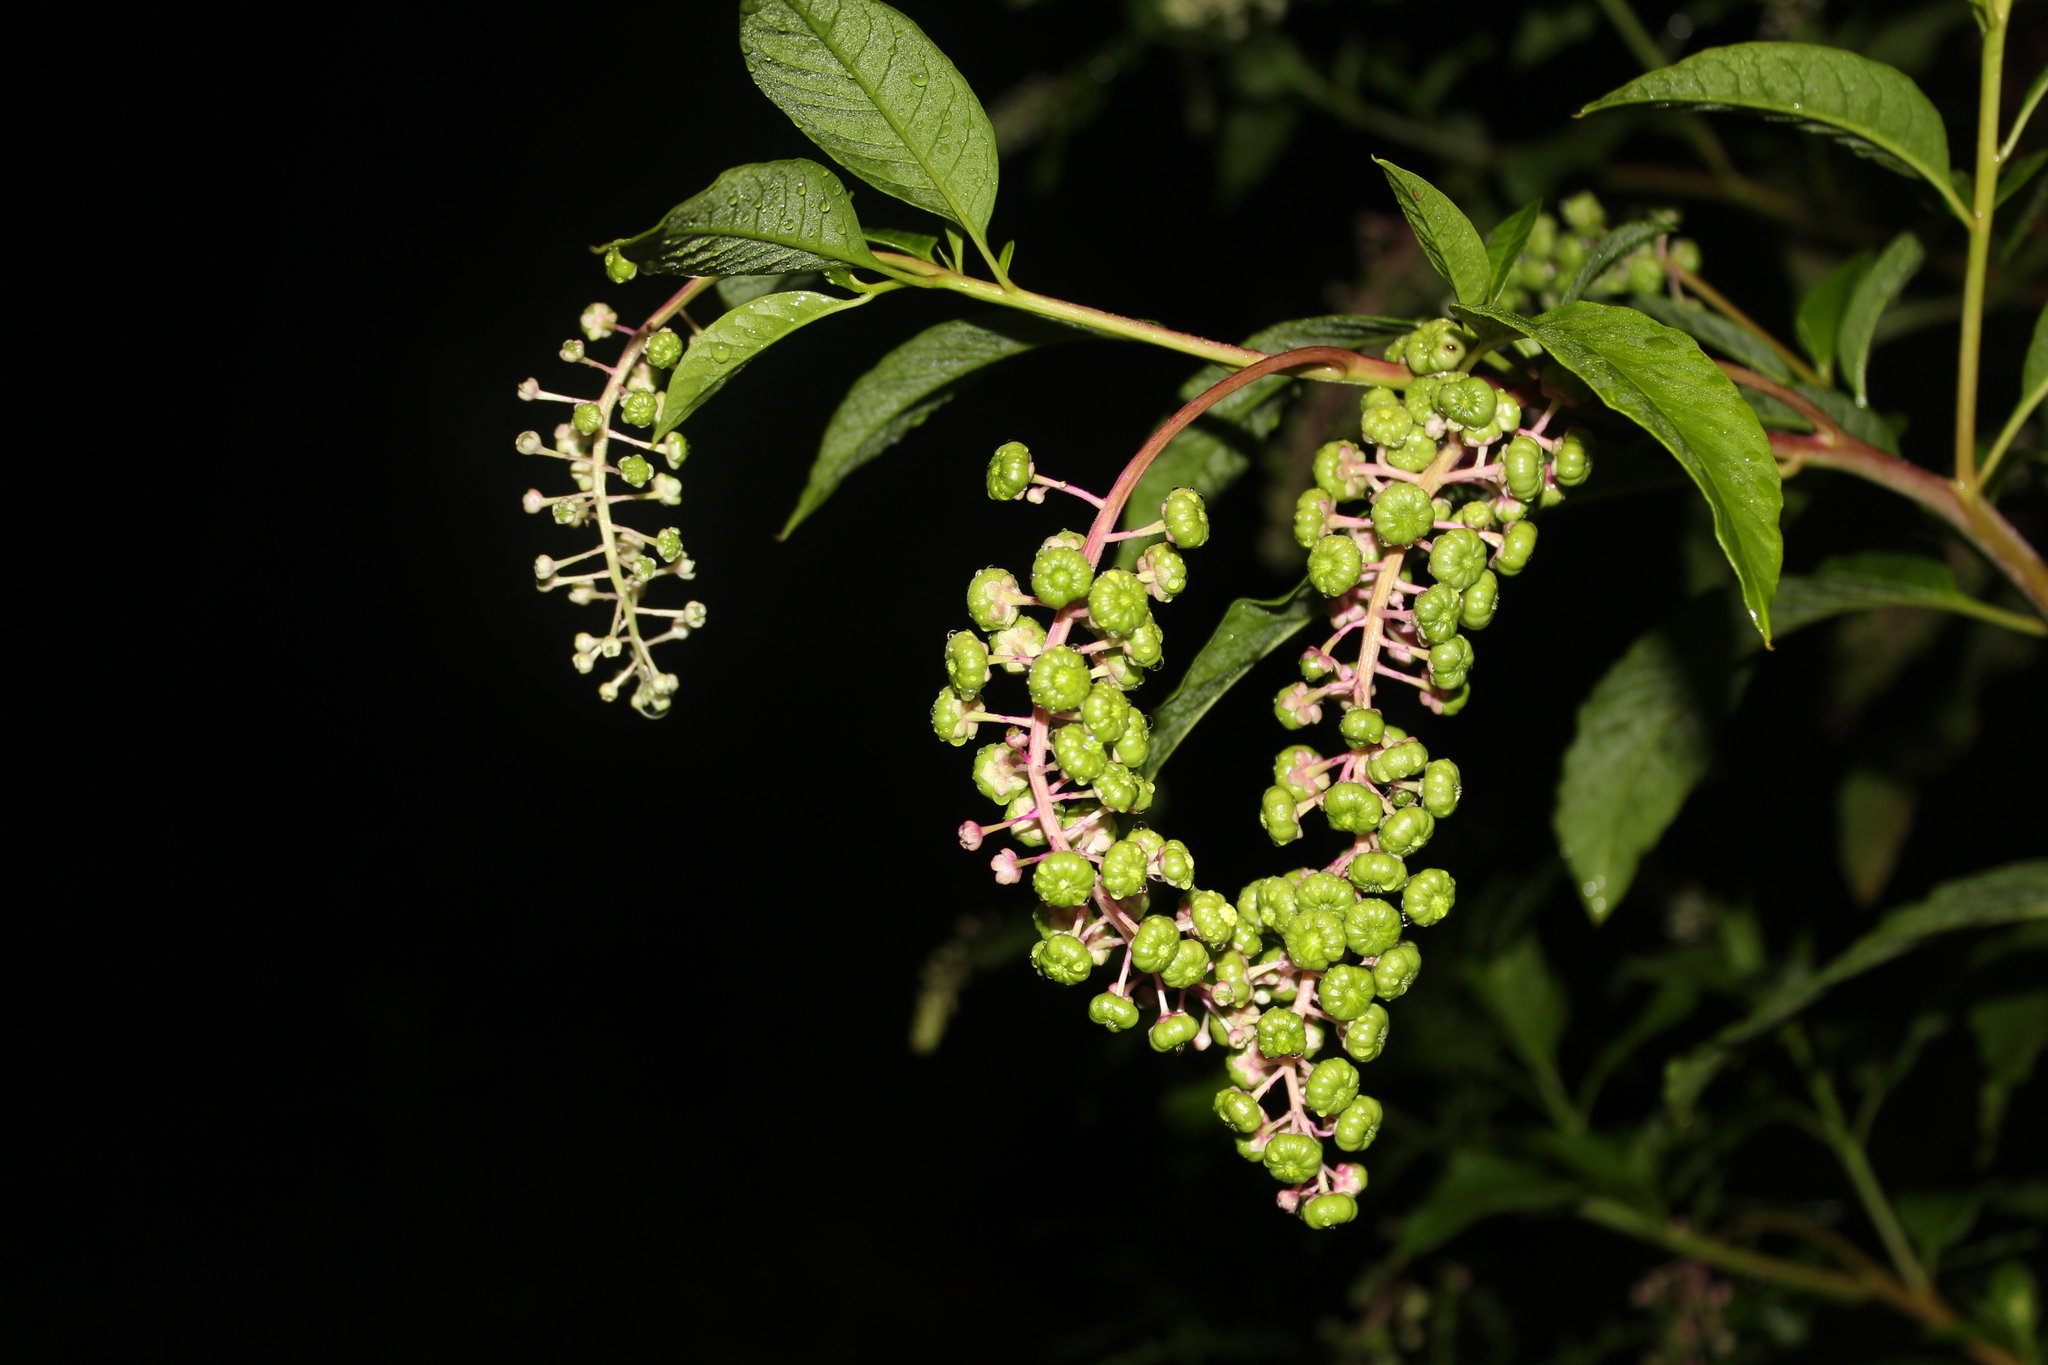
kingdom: Plantae
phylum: Tracheophyta
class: Magnoliopsida
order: Caryophyllales
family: Phytolaccaceae
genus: Phytolacca
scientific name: Phytolacca americana
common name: American pokeweed
